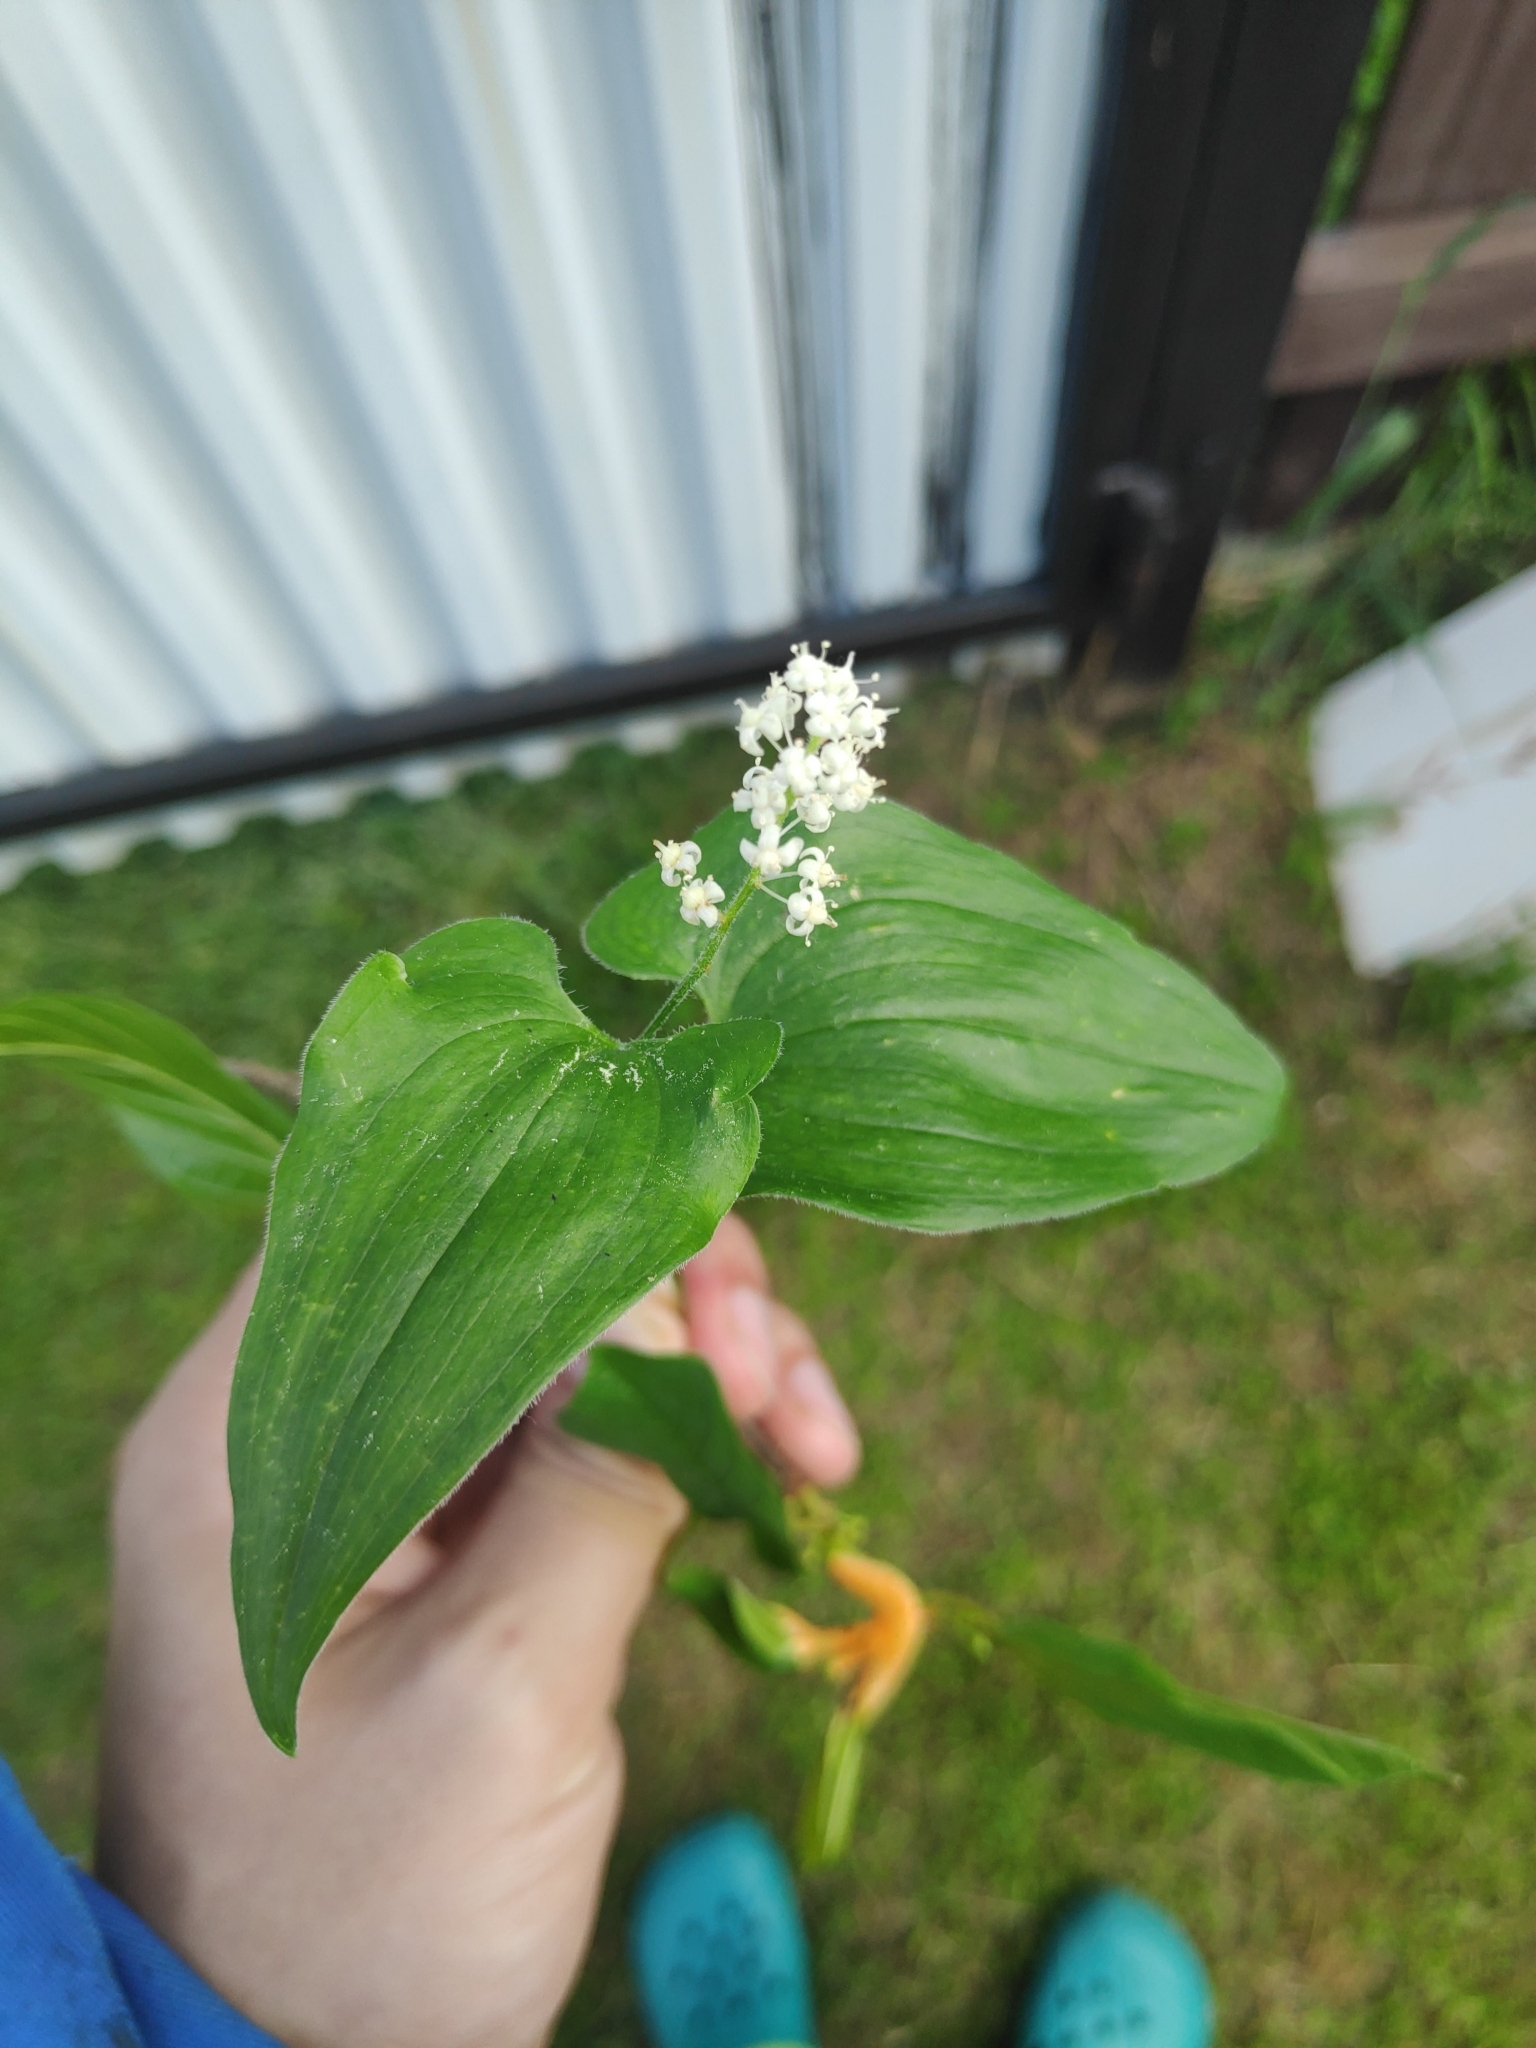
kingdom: Plantae
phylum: Tracheophyta
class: Liliopsida
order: Asparagales
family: Asparagaceae
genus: Maianthemum
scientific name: Maianthemum bifolium
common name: May lily
